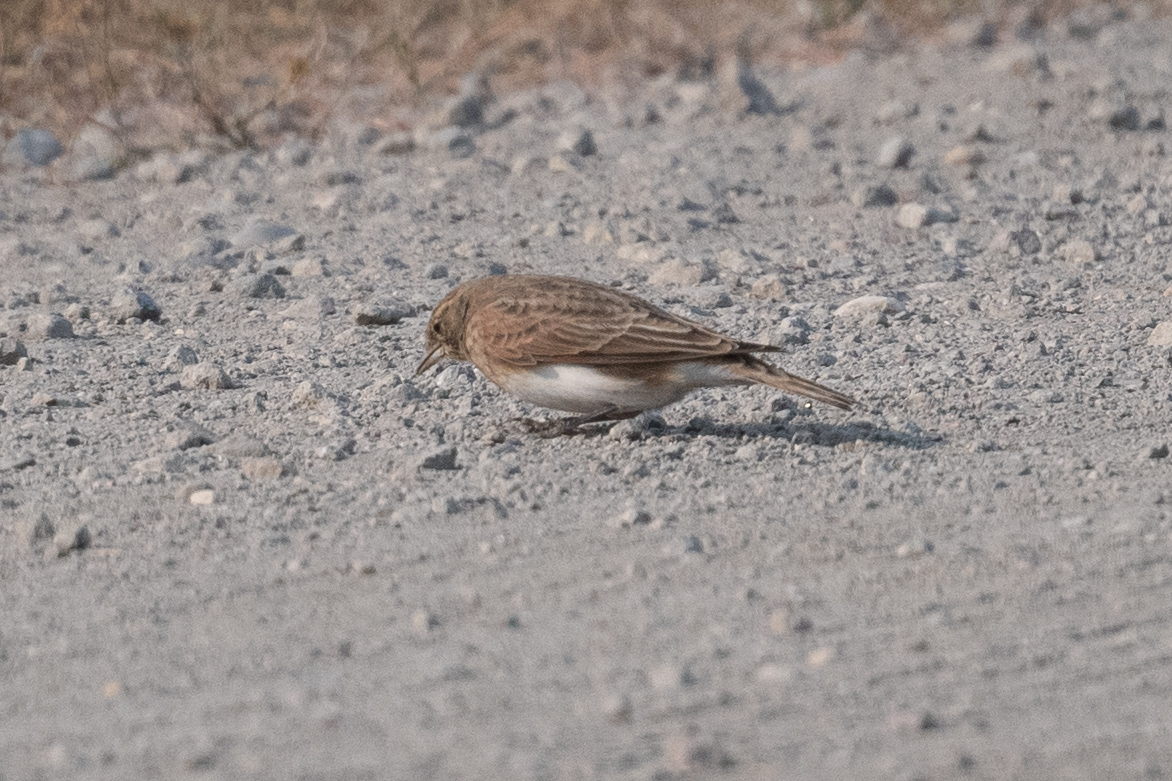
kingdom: Animalia
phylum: Chordata
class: Aves
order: Passeriformes
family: Alaudidae
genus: Eremophila
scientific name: Eremophila alpestris
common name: Horned lark
